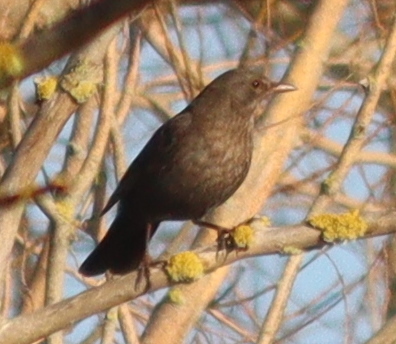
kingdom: Animalia
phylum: Chordata
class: Aves
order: Passeriformes
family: Turdidae
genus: Turdus
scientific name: Turdus merula
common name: Common blackbird
